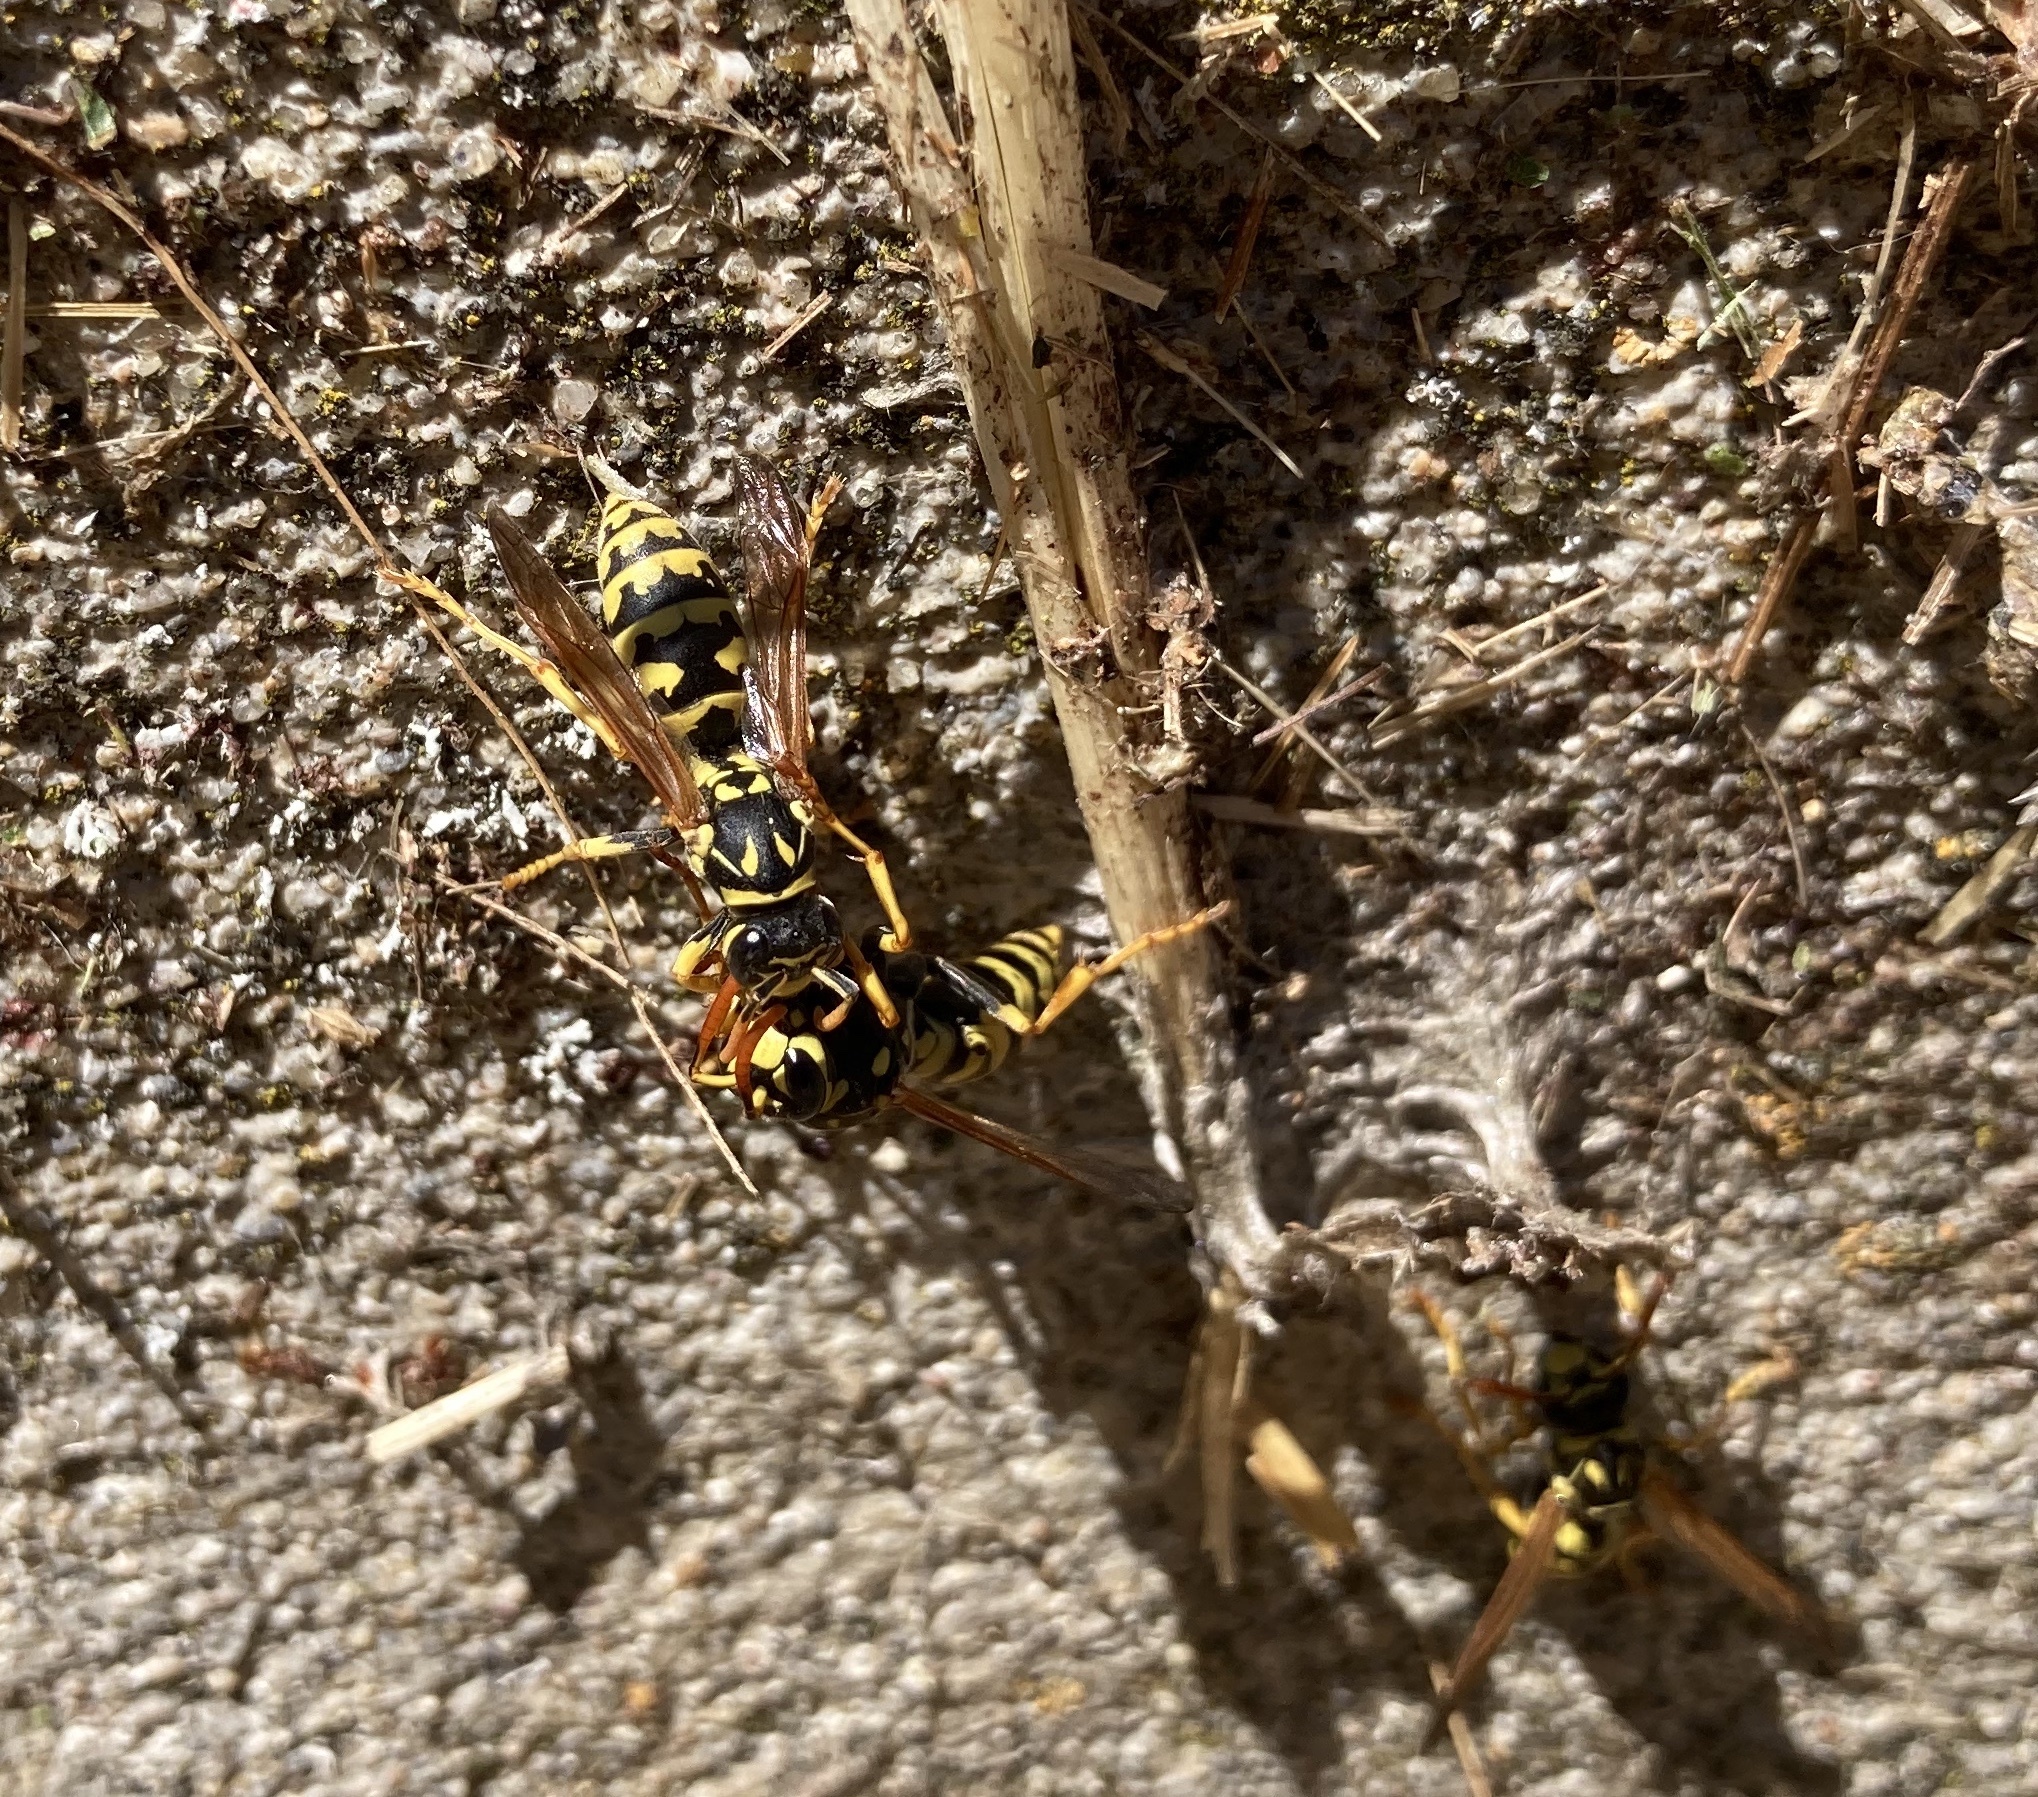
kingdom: Animalia
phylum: Arthropoda
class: Insecta
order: Hymenoptera
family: Eumenidae
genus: Polistes
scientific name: Polistes dominula
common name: Paper wasp
